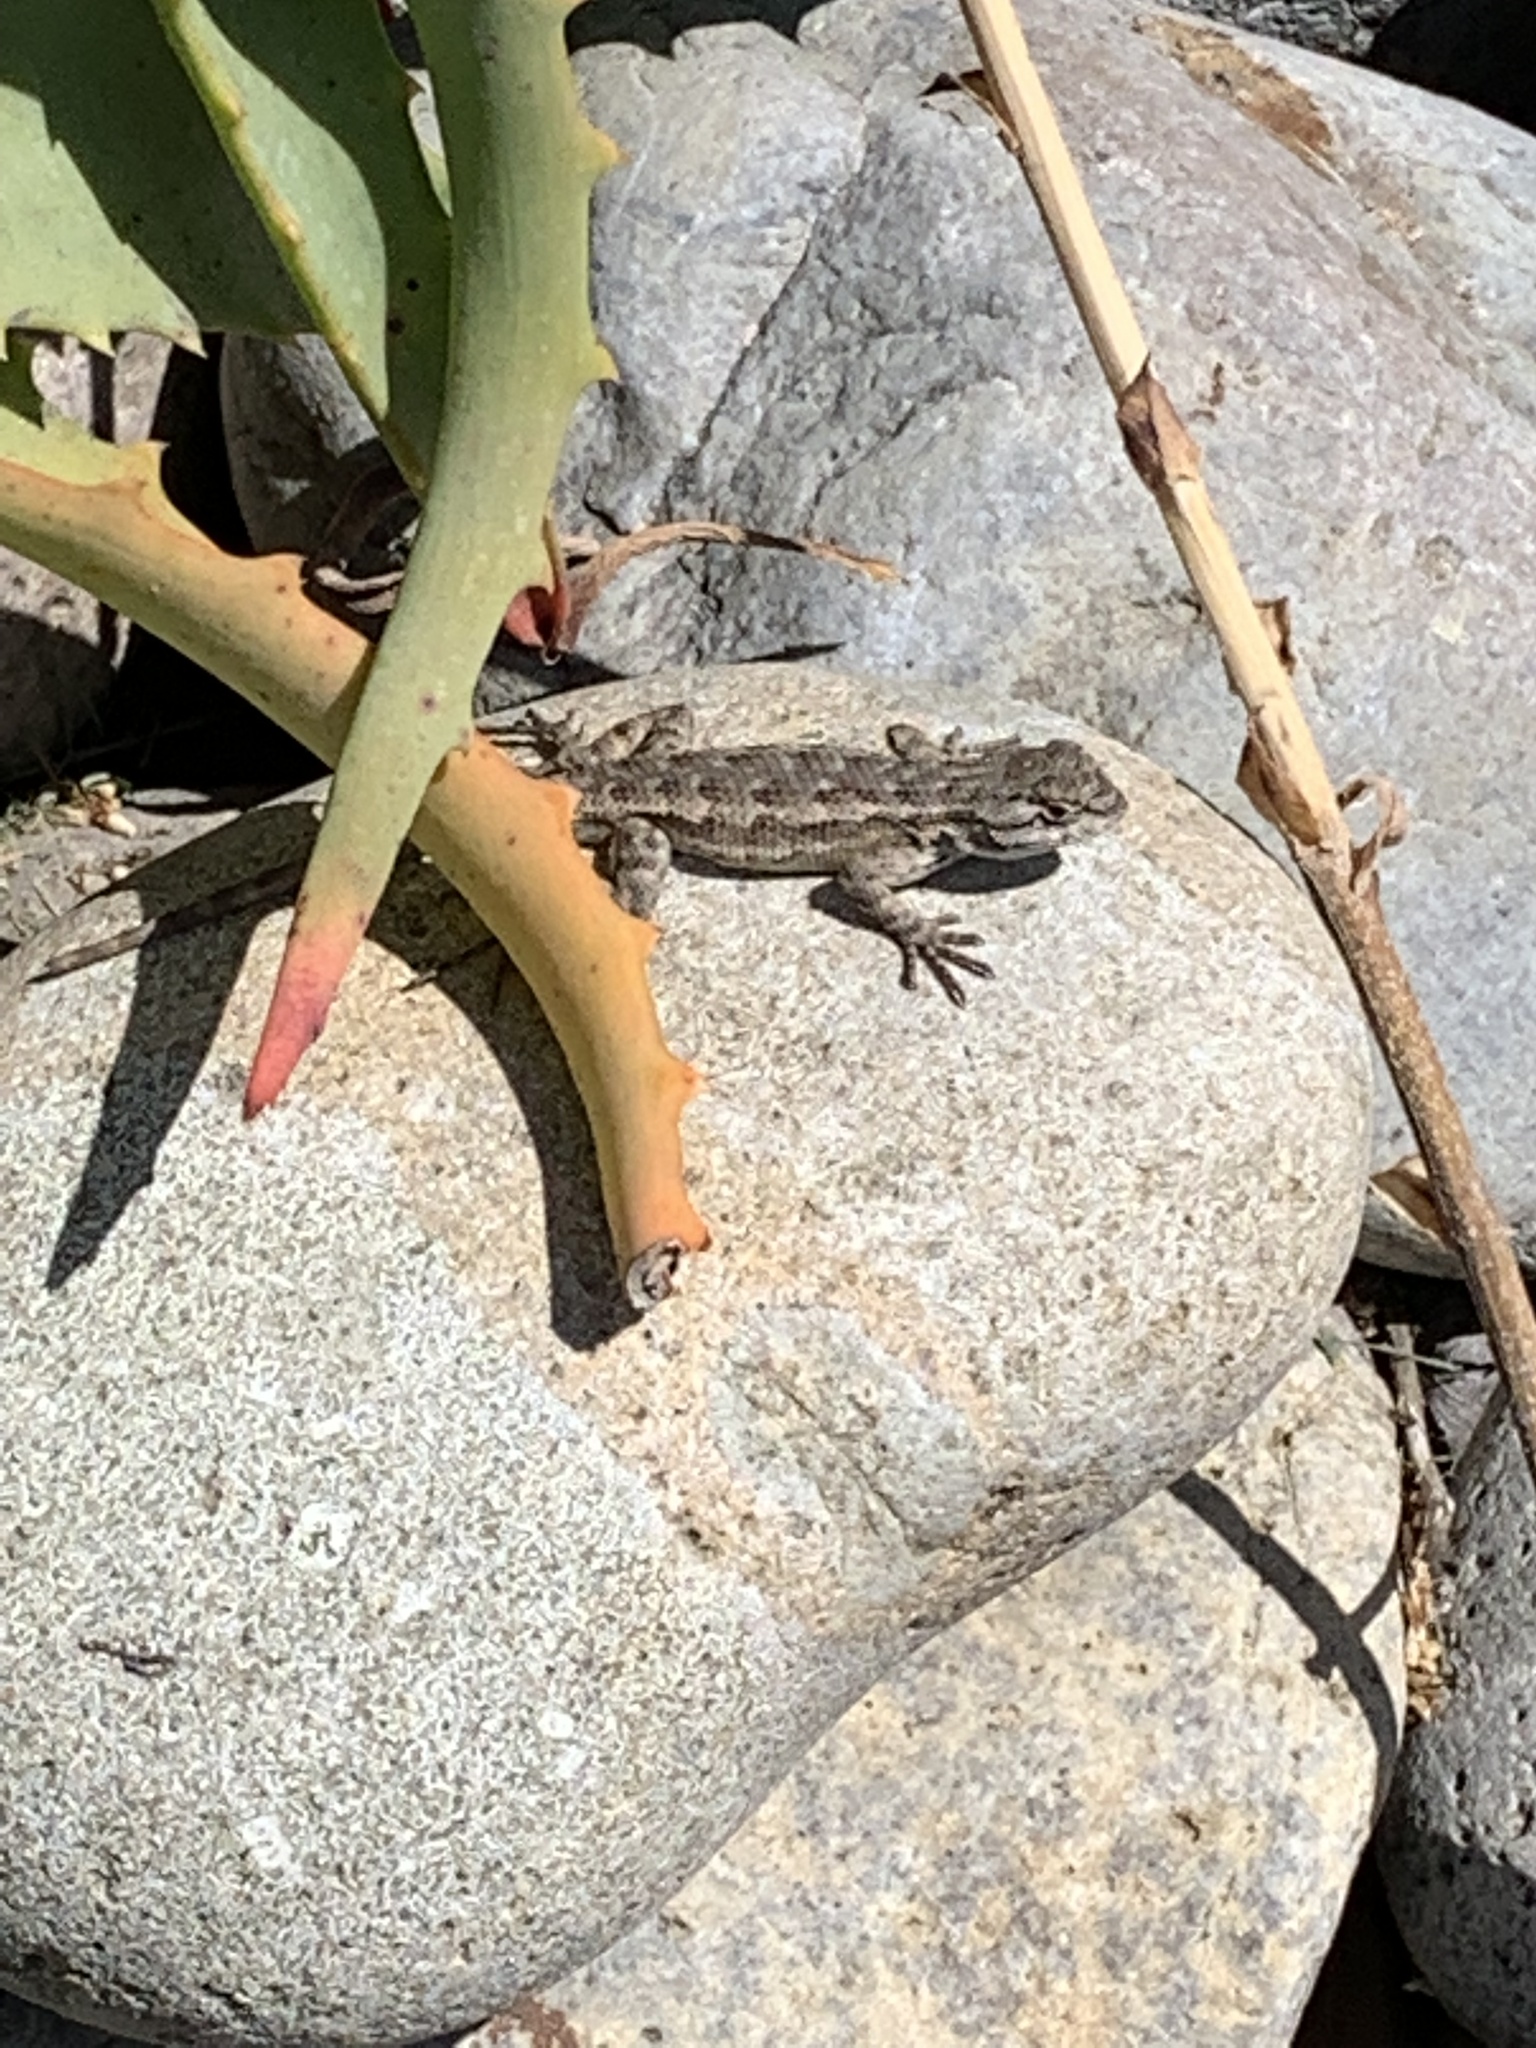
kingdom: Animalia
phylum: Chordata
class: Squamata
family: Phrynosomatidae
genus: Sceloporus
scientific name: Sceloporus occidentalis
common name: Western fence lizard
